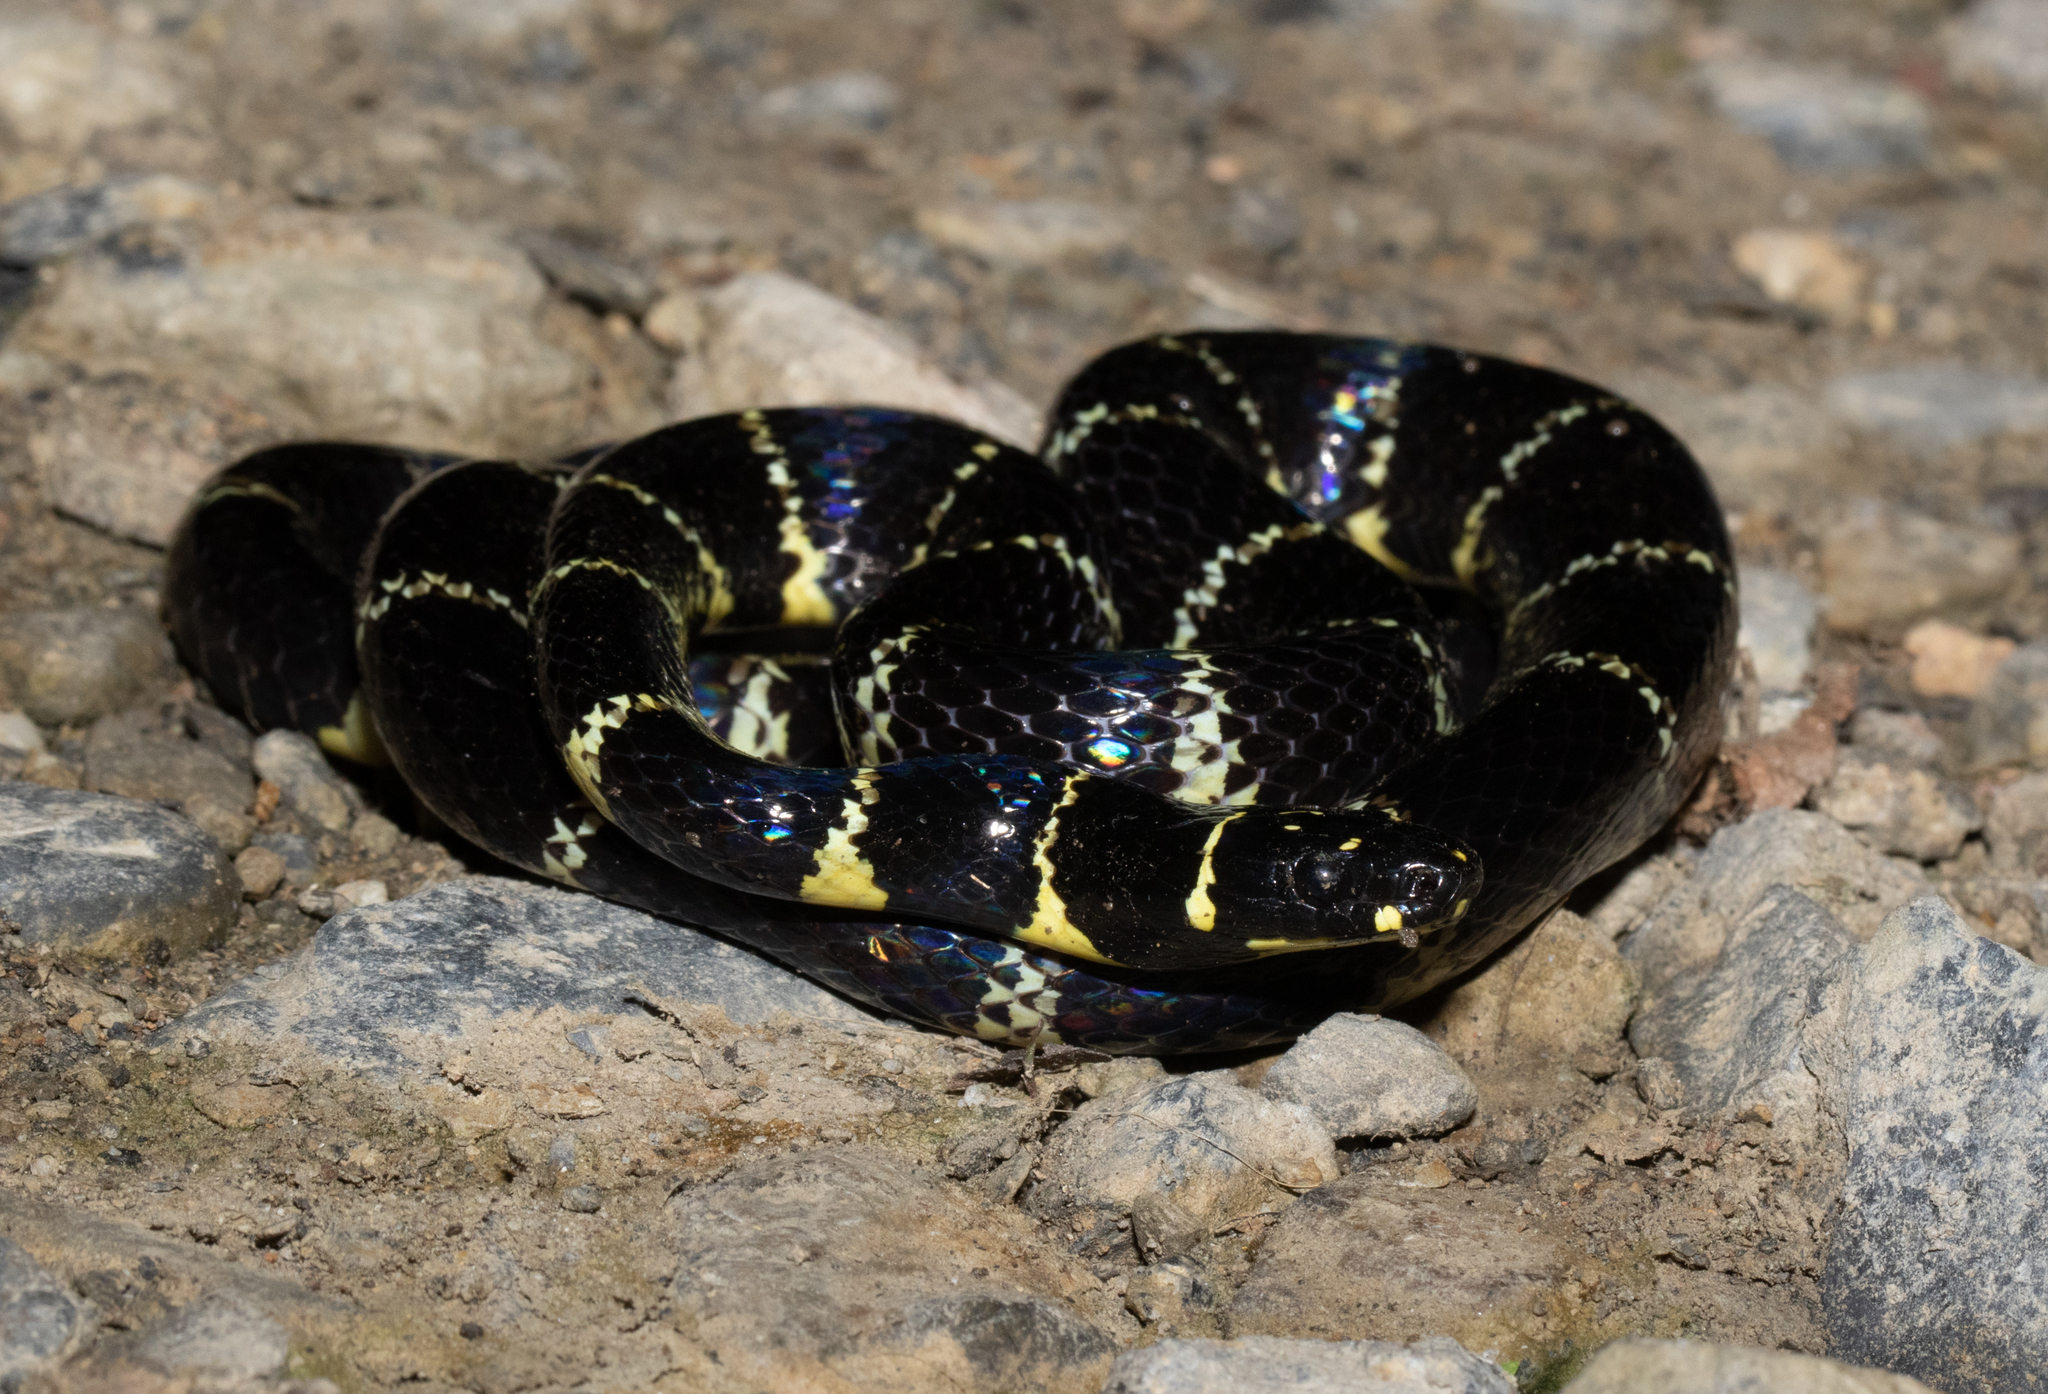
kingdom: Animalia
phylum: Chordata
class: Squamata
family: Colubridae
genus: Pliocercus
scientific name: Pliocercus euryzonus
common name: Cope's false coral snake
